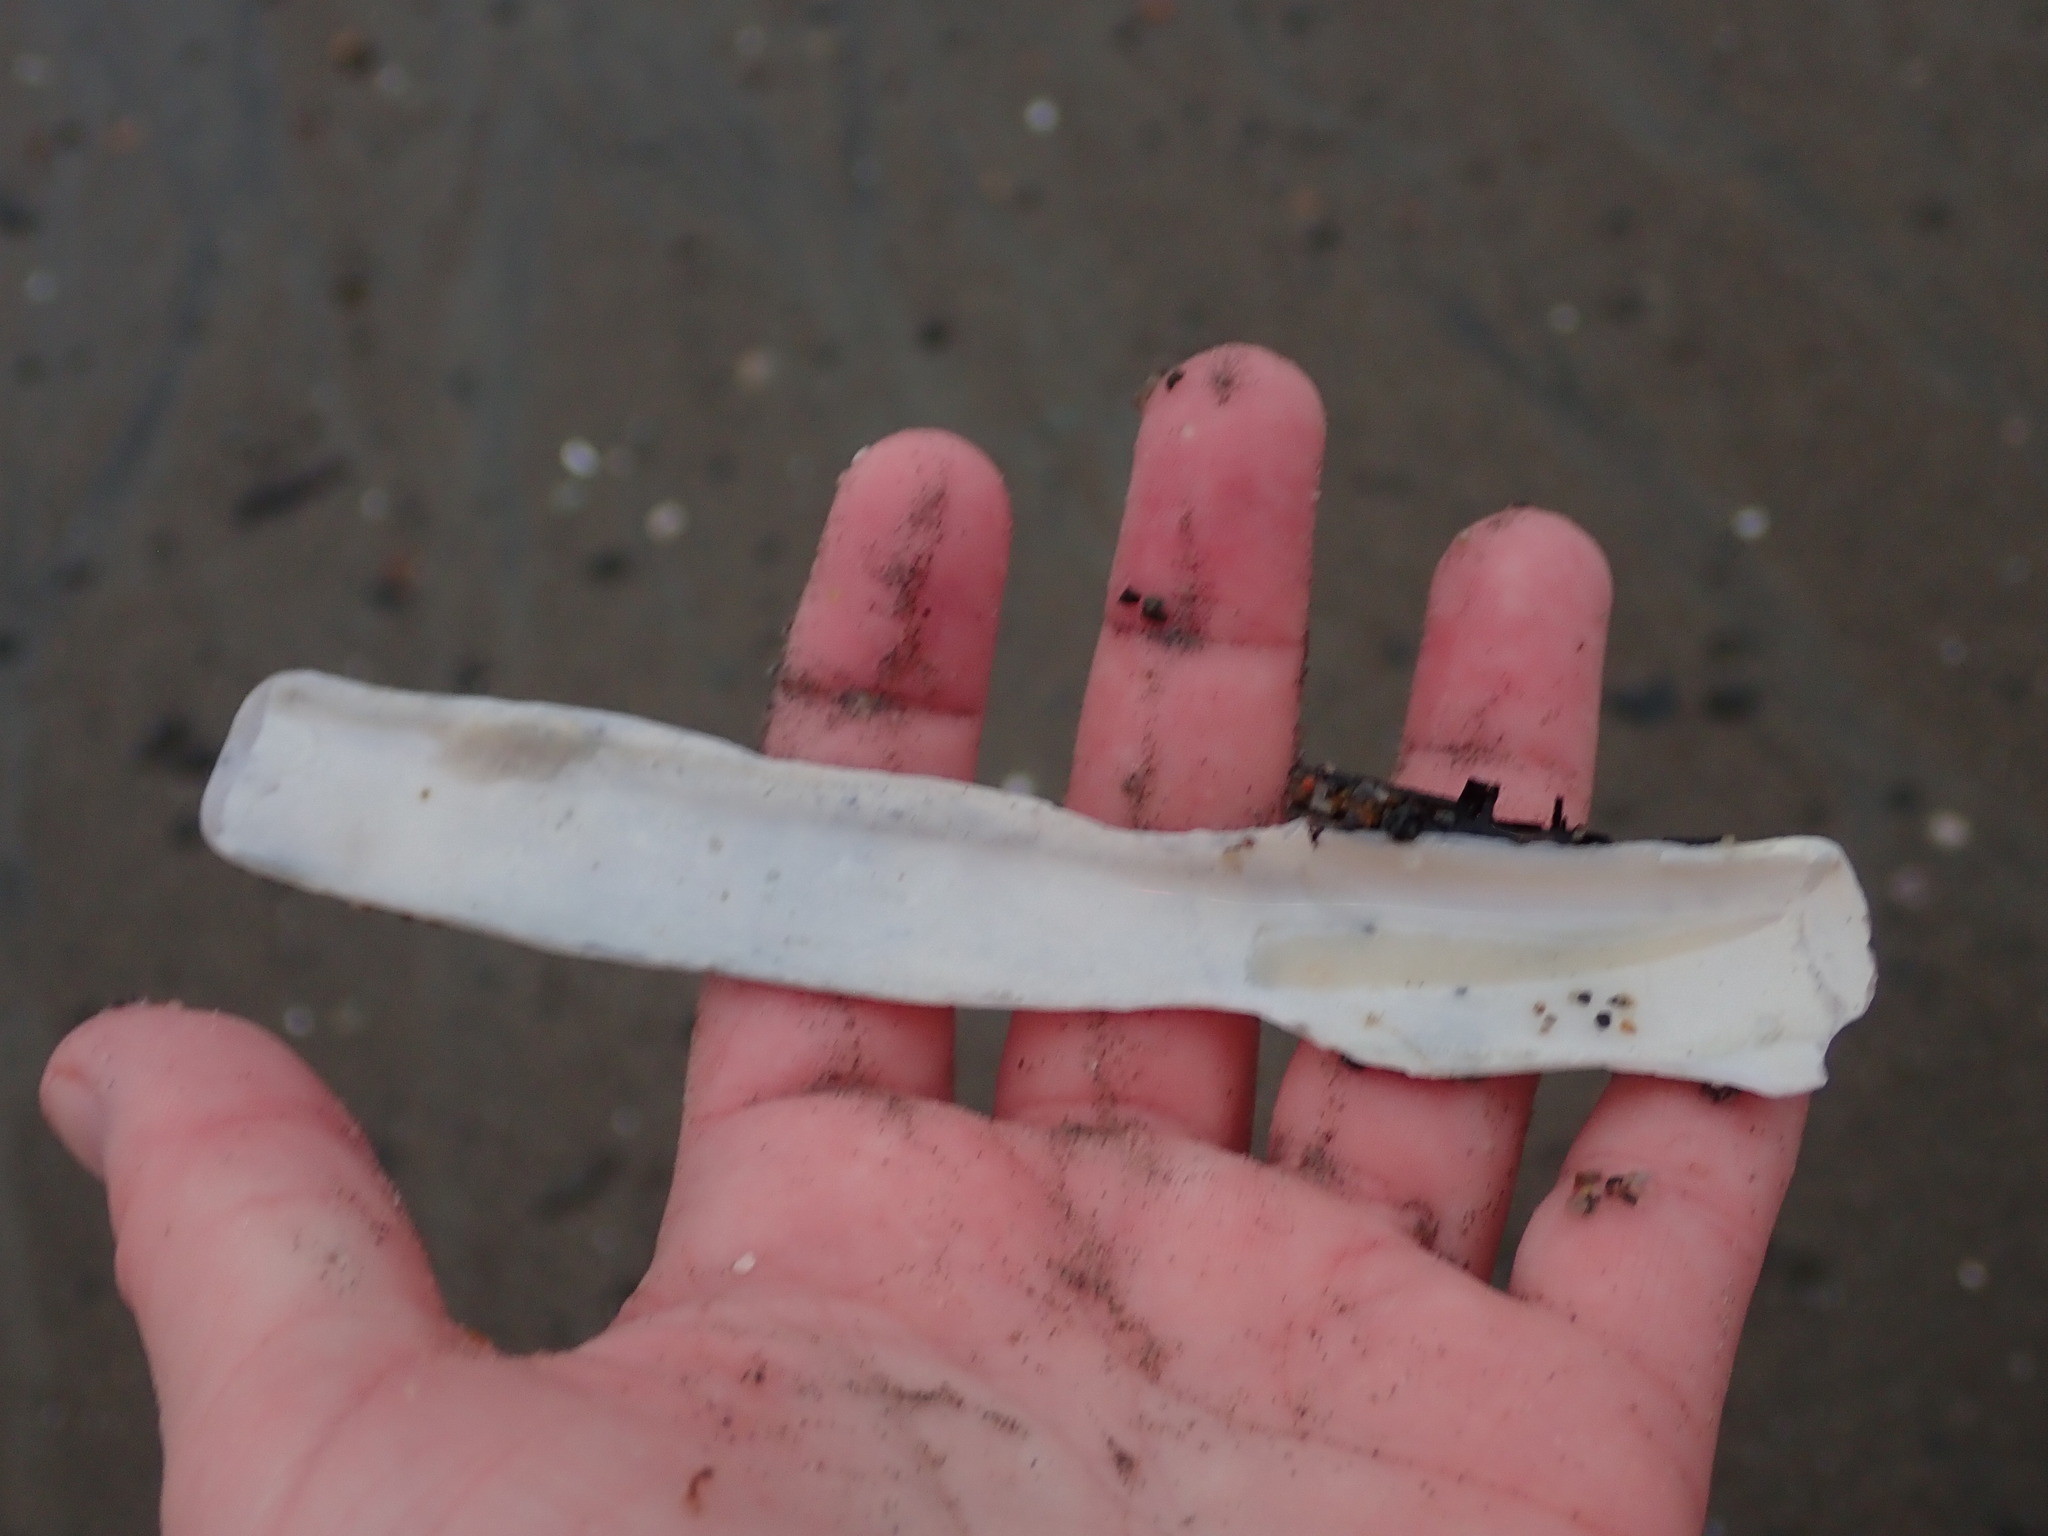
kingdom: Animalia
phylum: Mollusca
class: Bivalvia
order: Adapedonta
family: Pharidae
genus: Ensis
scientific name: Ensis leei
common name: American jack knife clam
